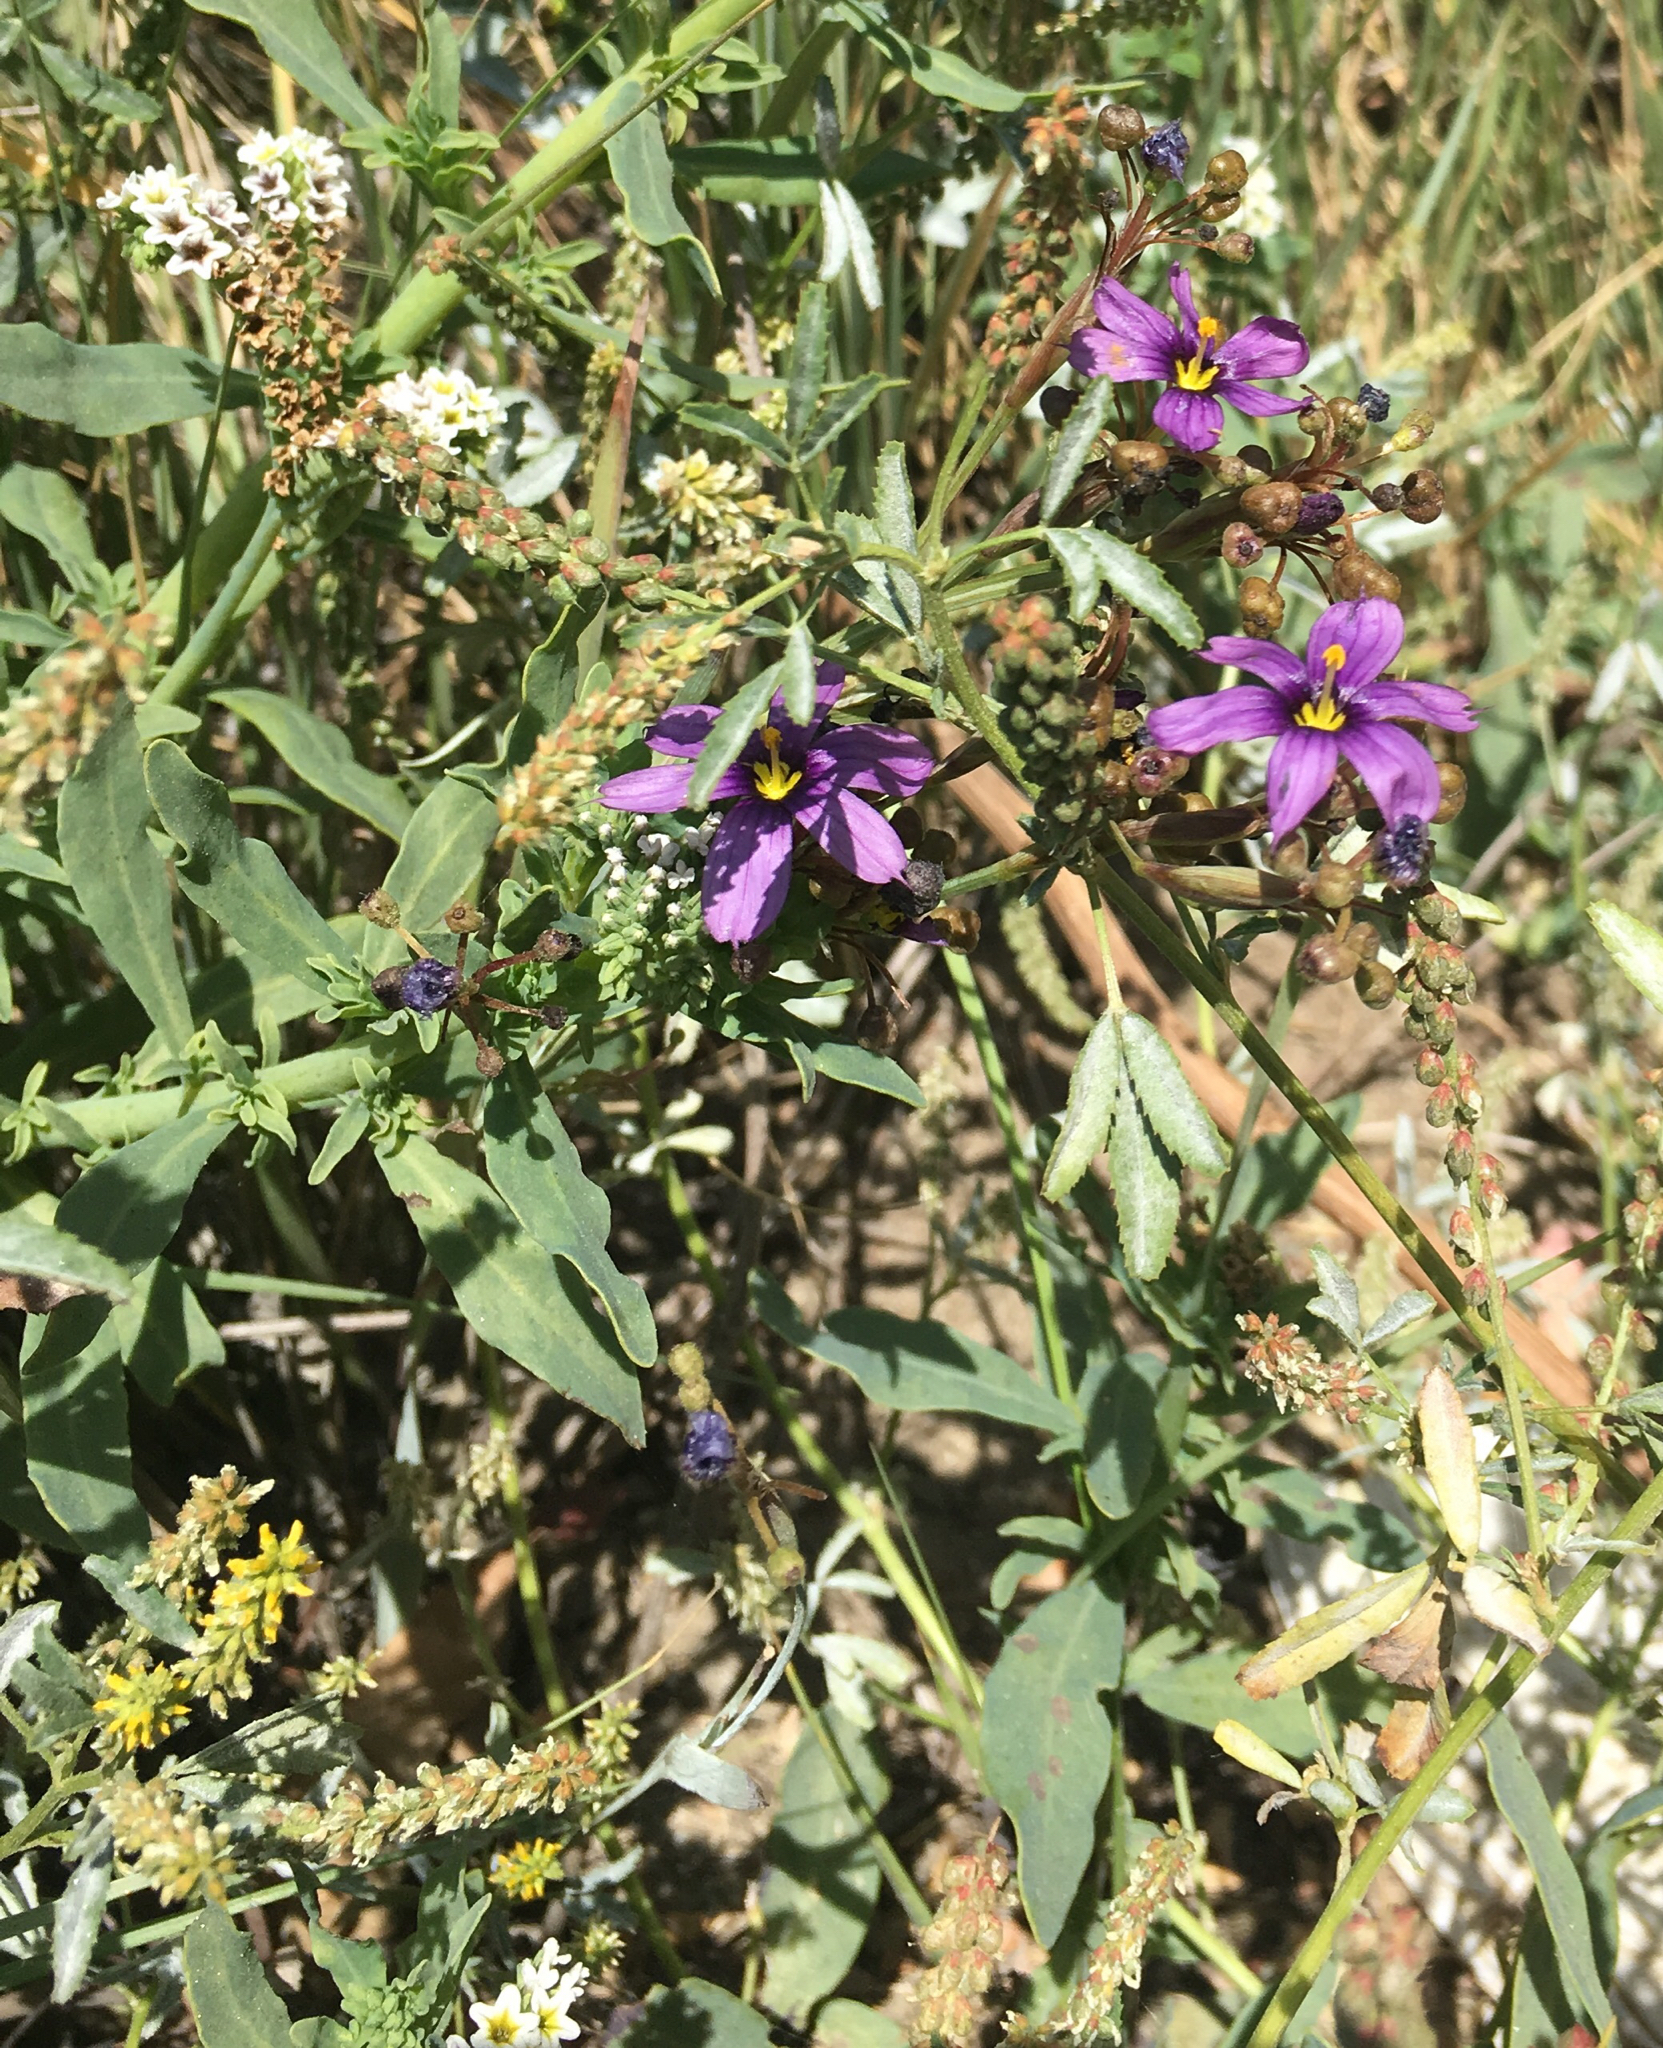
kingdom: Plantae
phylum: Tracheophyta
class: Liliopsida
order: Asparagales
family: Iridaceae
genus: Sisyrinchium
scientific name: Sisyrinchium bellum
